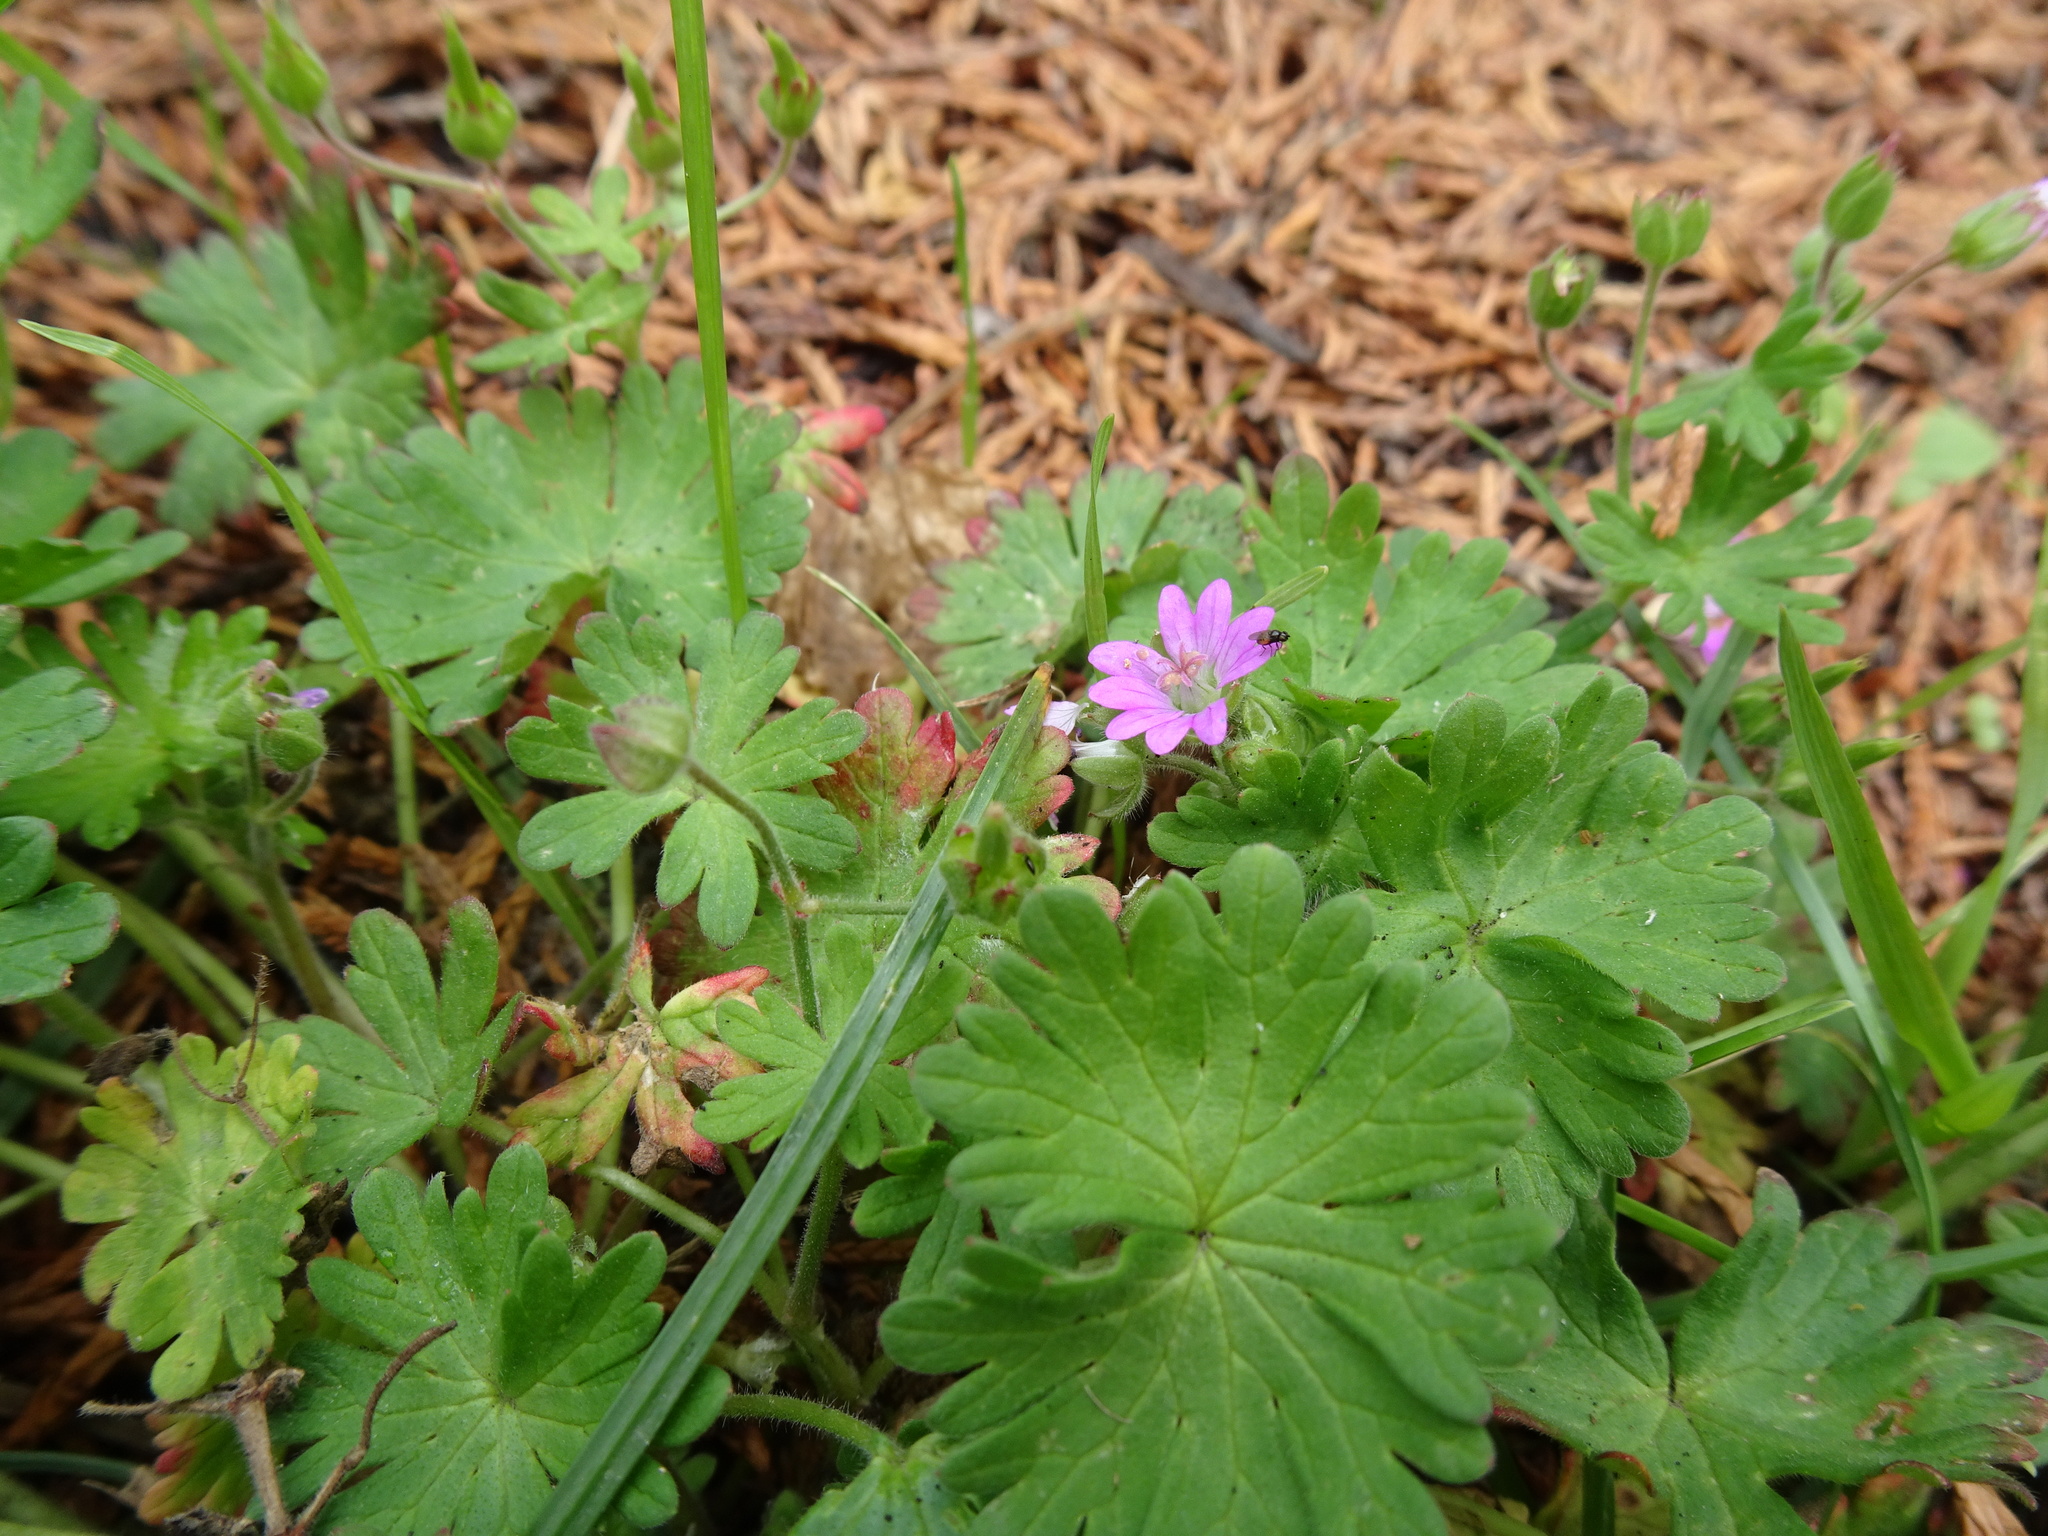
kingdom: Plantae
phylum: Tracheophyta
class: Magnoliopsida
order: Geraniales
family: Geraniaceae
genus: Geranium
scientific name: Geranium molle
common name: Dove's-foot crane's-bill
